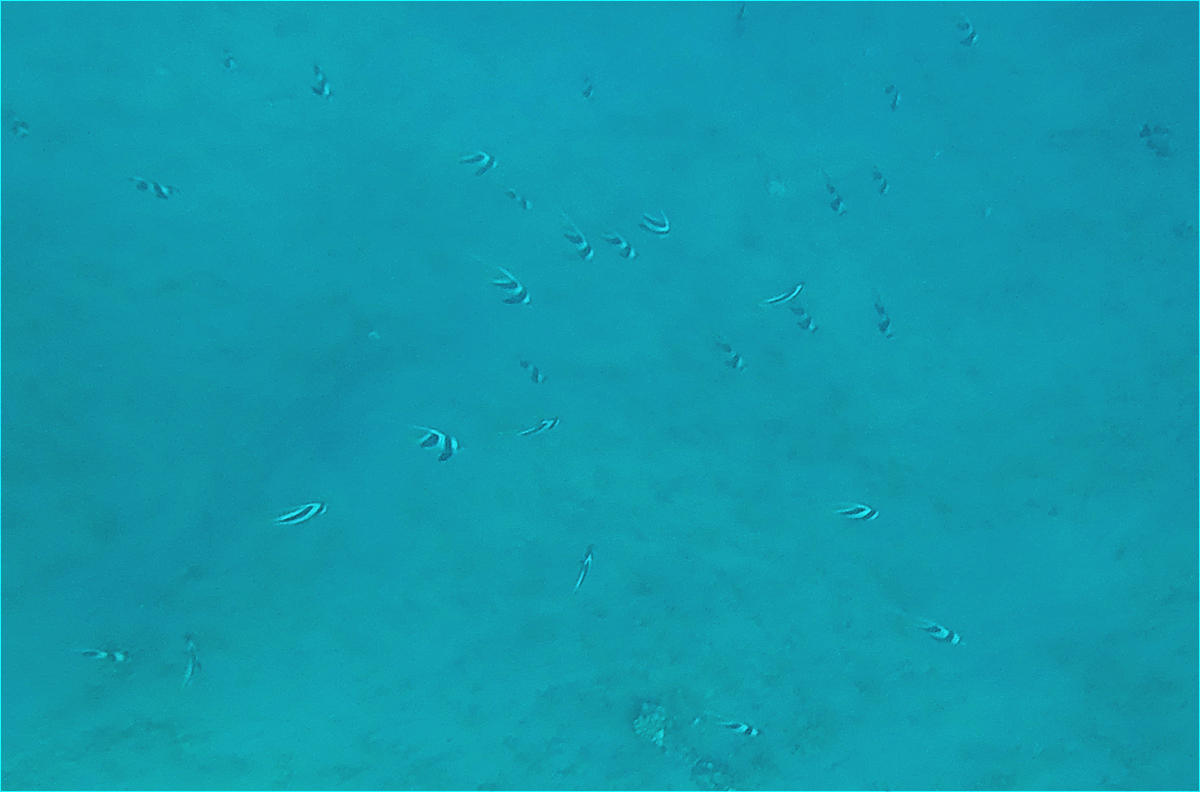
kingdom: Animalia
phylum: Chordata
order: Perciformes
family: Chaetodontidae
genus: Heniochus
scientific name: Heniochus diphreutes
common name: Pennantfish
